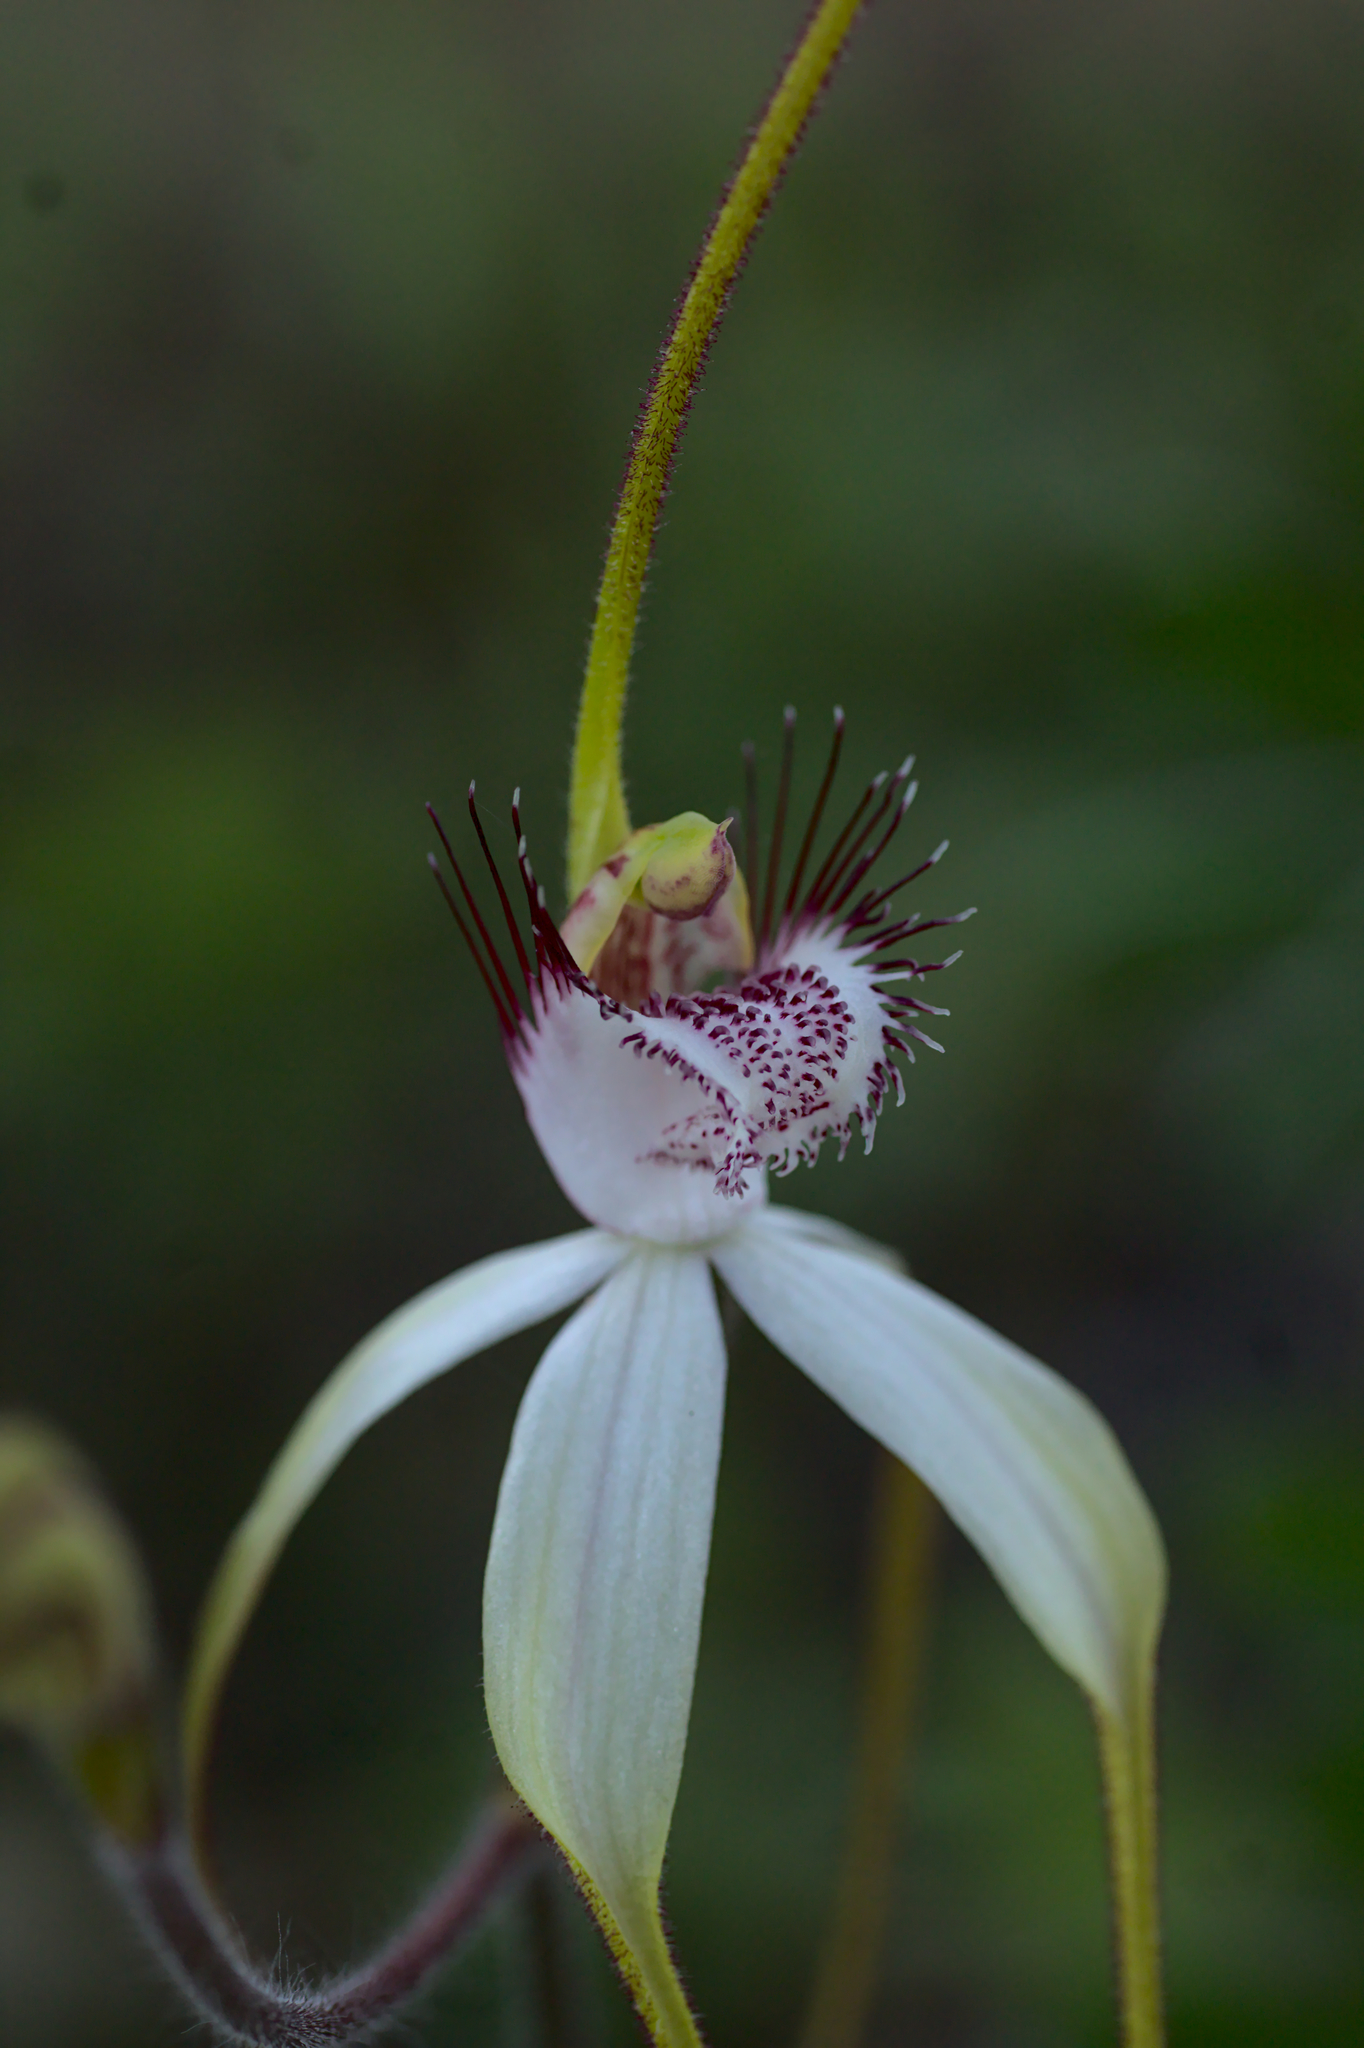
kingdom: Plantae
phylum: Tracheophyta
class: Liliopsida
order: Asparagales
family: Orchidaceae
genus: Caladenia
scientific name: Caladenia longicauda
